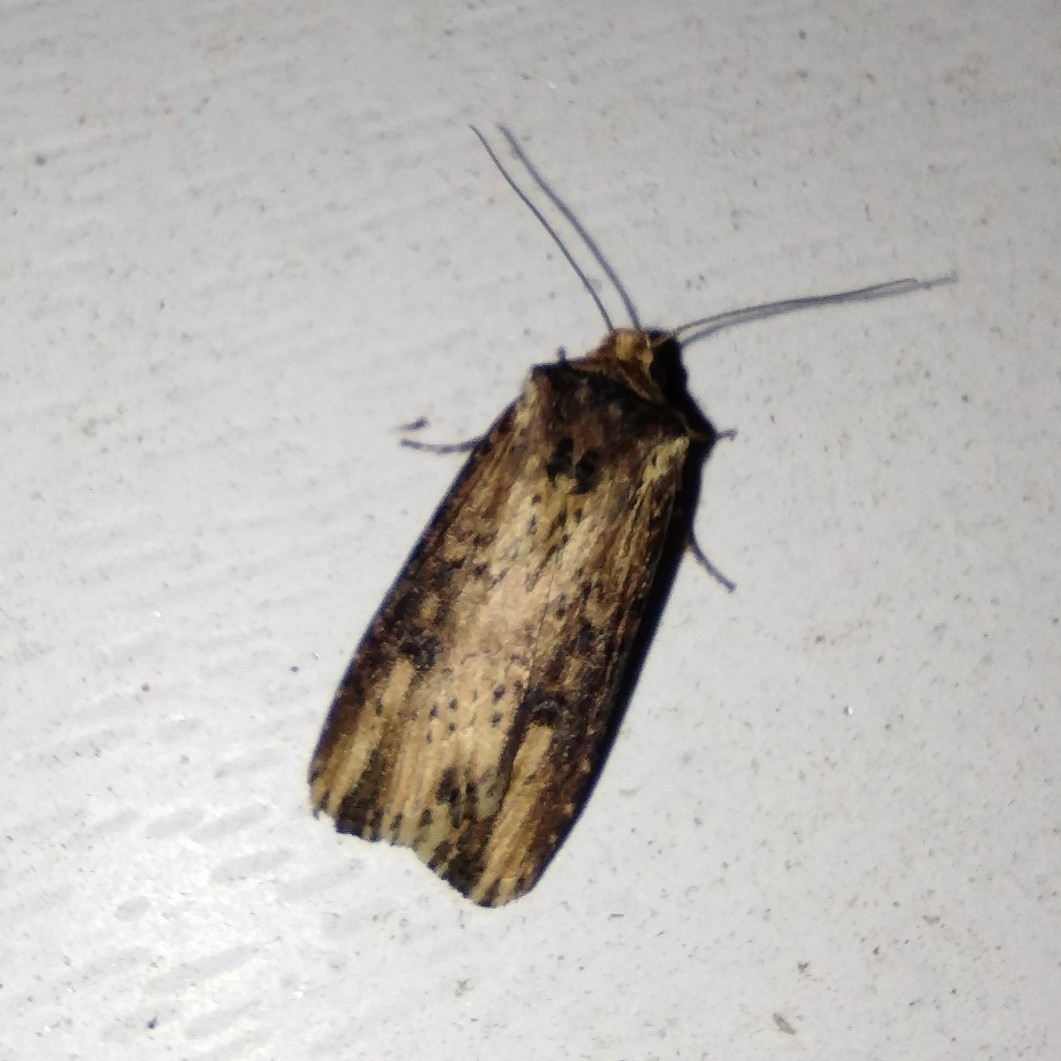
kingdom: Animalia
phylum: Arthropoda
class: Insecta
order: Lepidoptera
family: Noctuidae
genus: Axylia
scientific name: Axylia putris
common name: Flame
